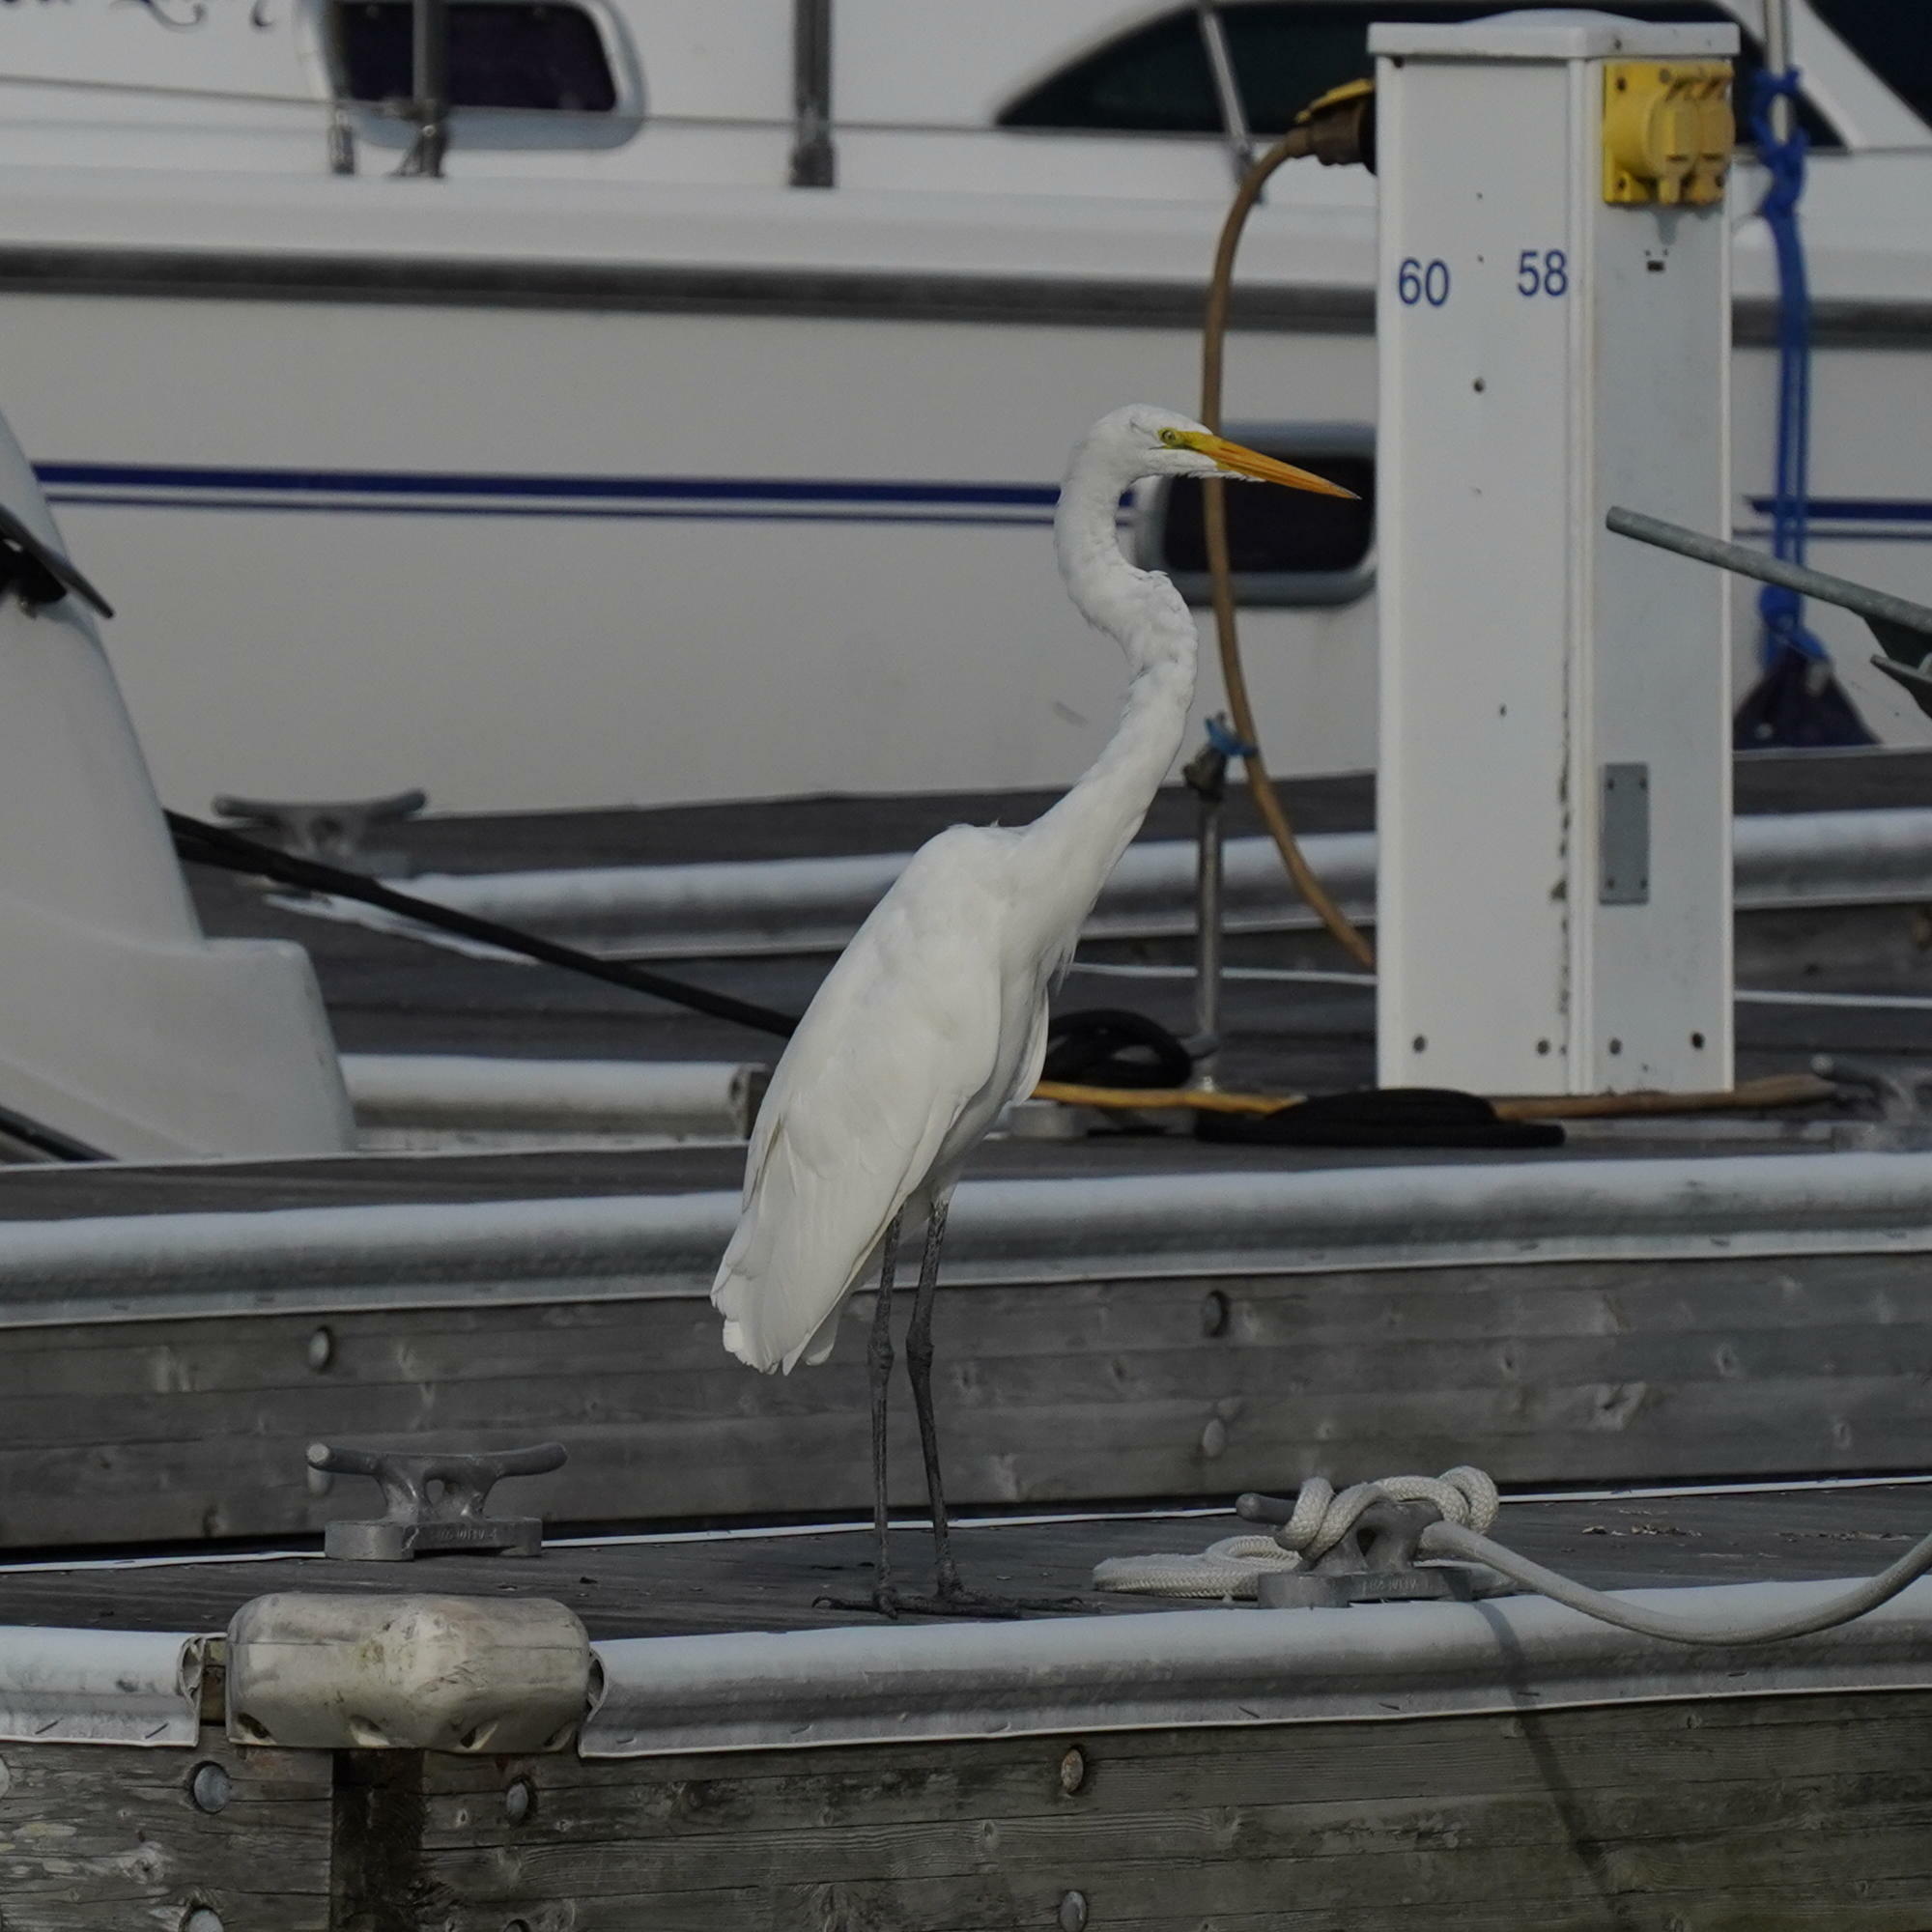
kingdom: Animalia
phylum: Chordata
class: Aves
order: Pelecaniformes
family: Ardeidae
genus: Ardea
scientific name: Ardea alba
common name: Great egret
